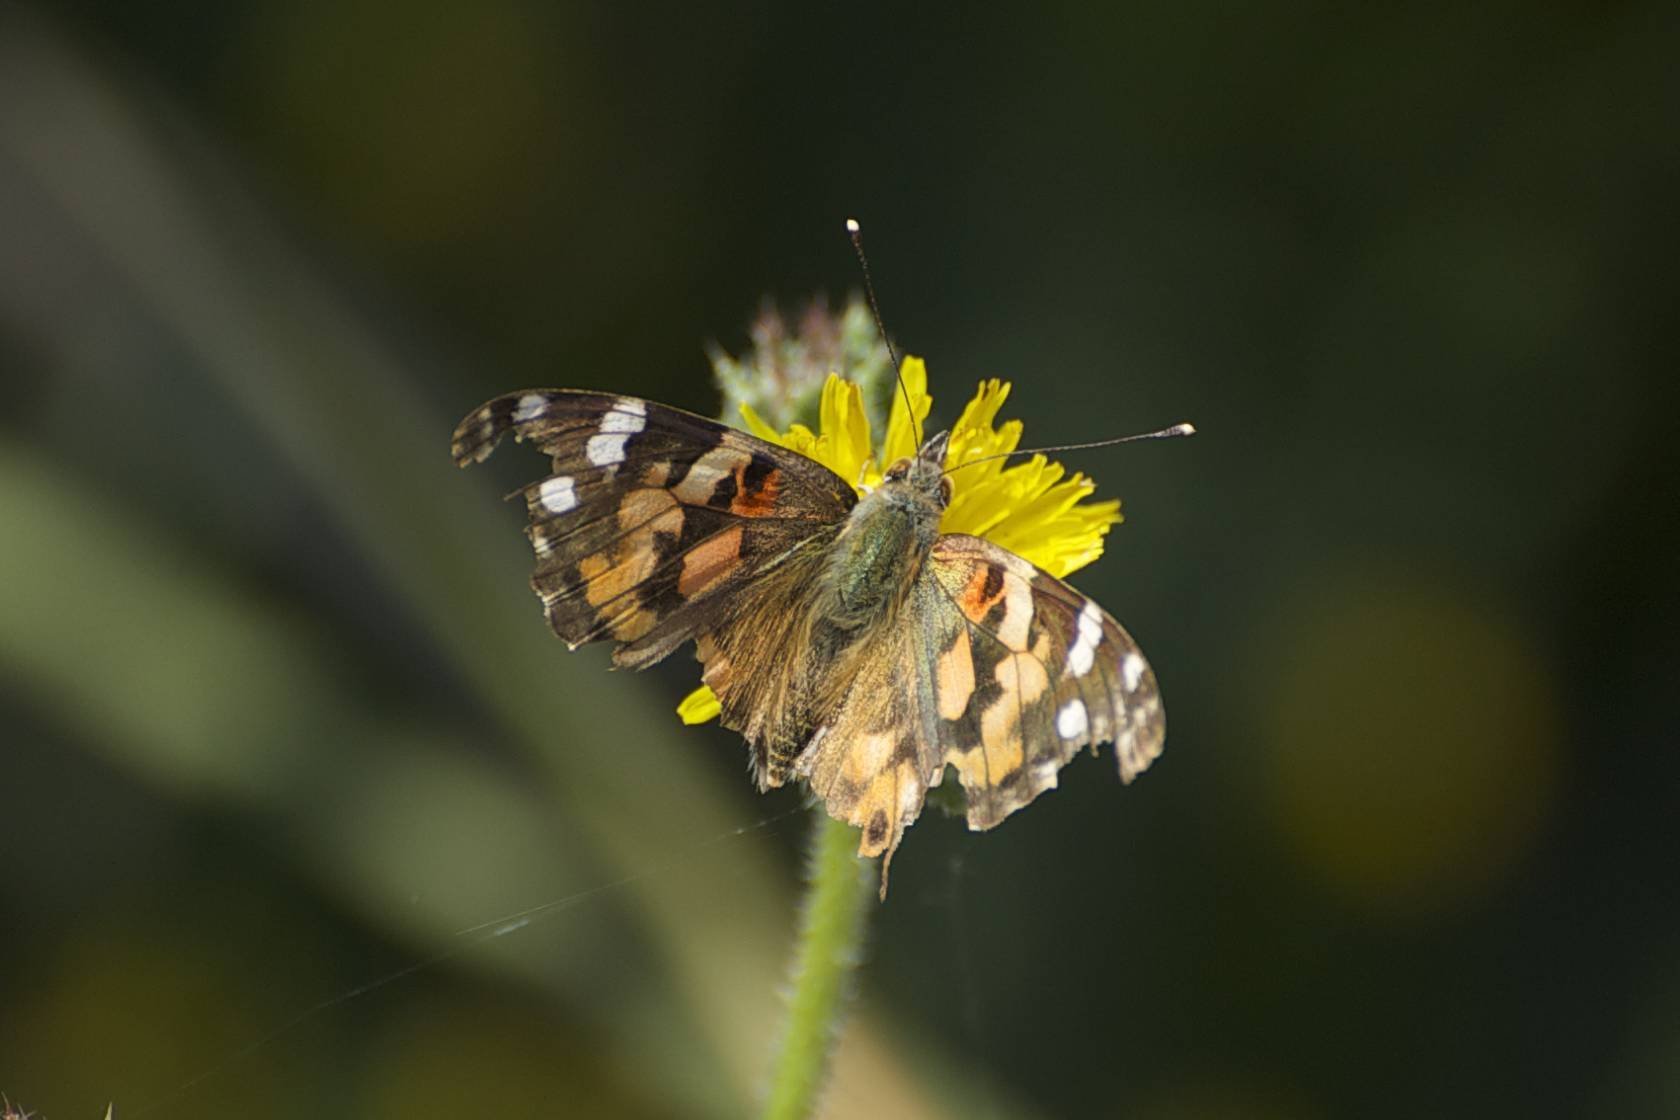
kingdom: Animalia
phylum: Arthropoda
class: Insecta
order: Lepidoptera
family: Nymphalidae
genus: Vanessa
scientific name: Vanessa cardui
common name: Painted lady
